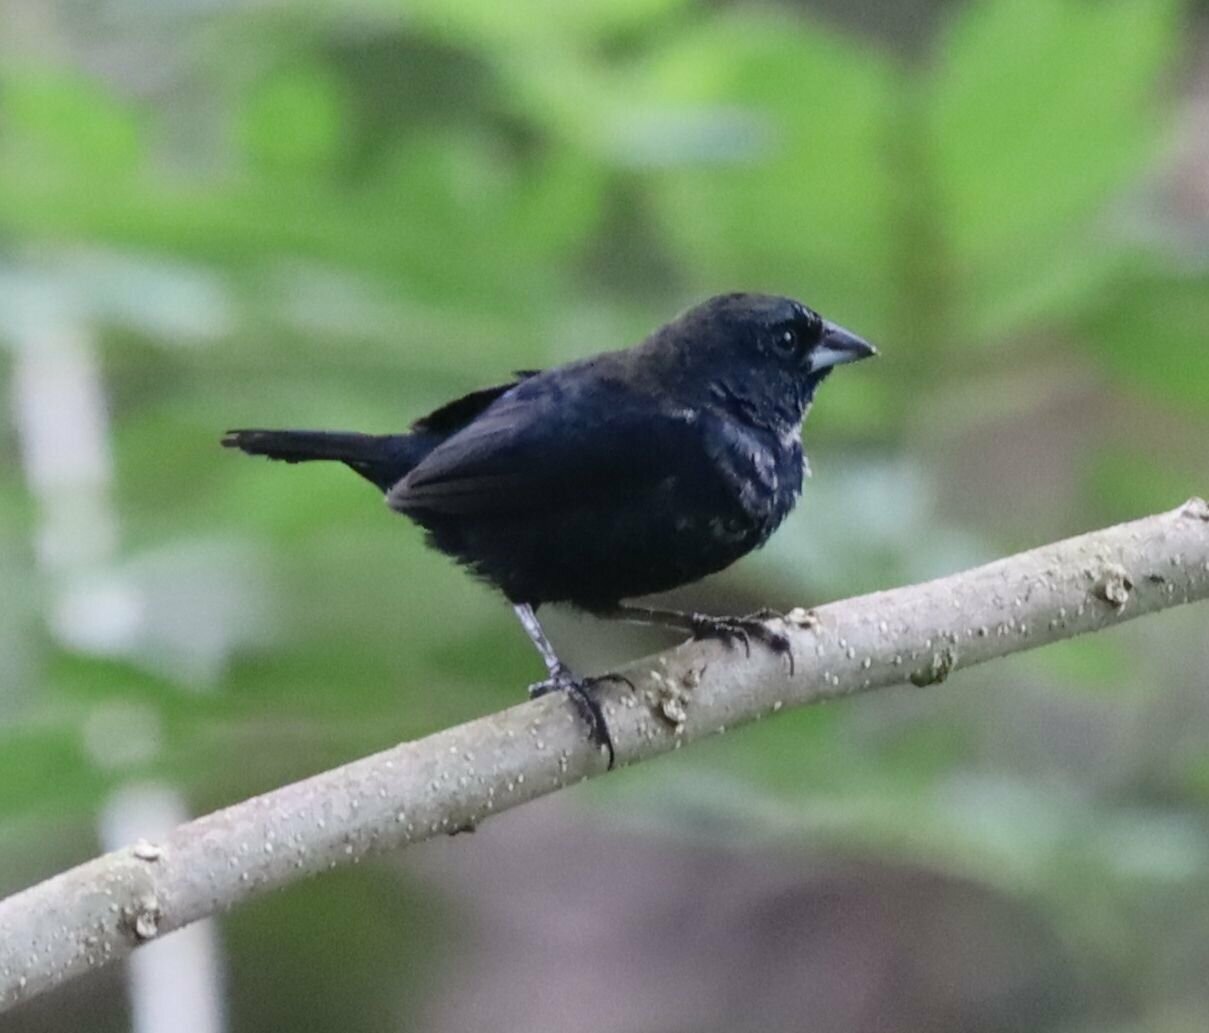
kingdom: Animalia
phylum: Chordata
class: Aves
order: Passeriformes
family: Thraupidae
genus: Volatinia
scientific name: Volatinia jacarina
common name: Blue-black grassquit
